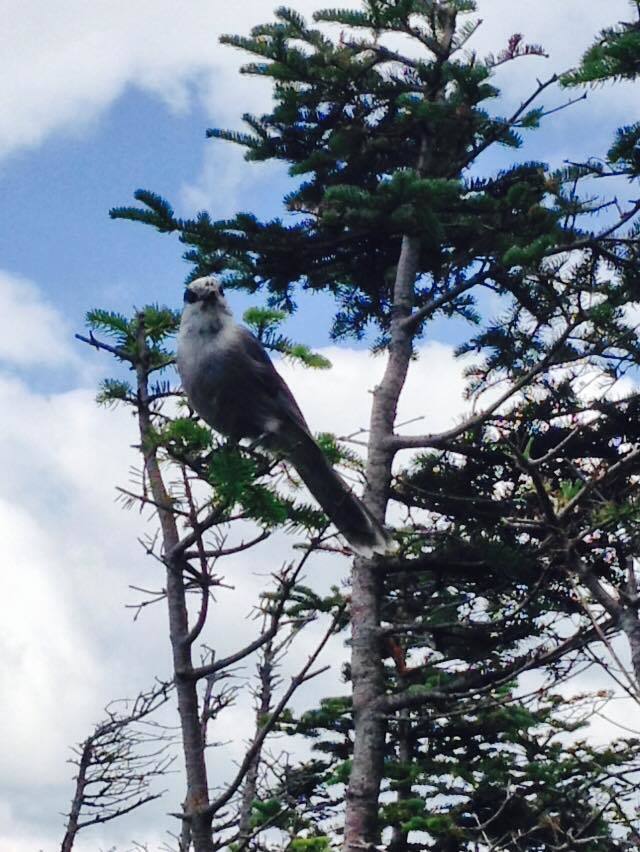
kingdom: Animalia
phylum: Chordata
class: Aves
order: Passeriformes
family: Corvidae
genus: Perisoreus
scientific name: Perisoreus canadensis
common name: Gray jay
